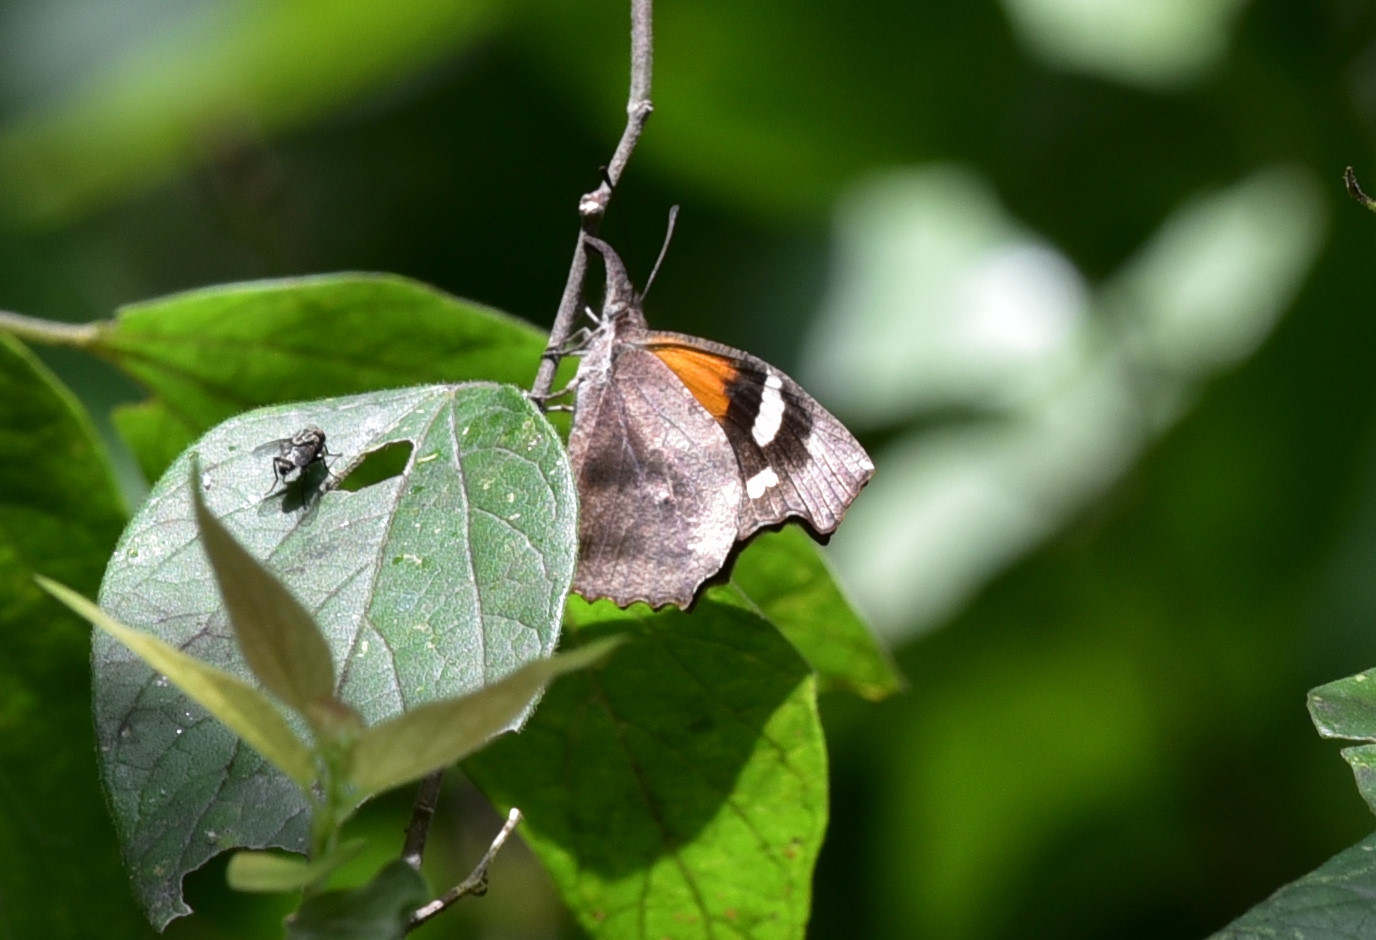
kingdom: Animalia
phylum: Arthropoda
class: Insecta
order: Lepidoptera
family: Nymphalidae
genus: Libytheana
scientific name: Libytheana carinenta
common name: American snout
